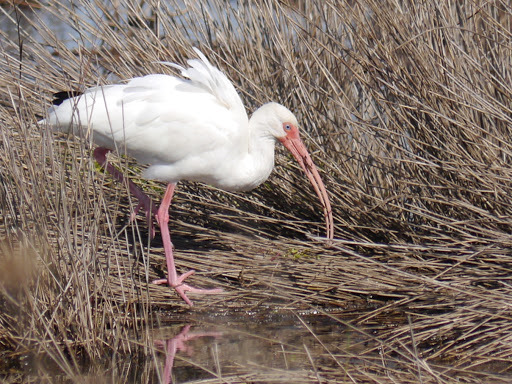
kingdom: Animalia
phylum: Chordata
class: Aves
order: Pelecaniformes
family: Threskiornithidae
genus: Eudocimus
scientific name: Eudocimus albus
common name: White ibis
